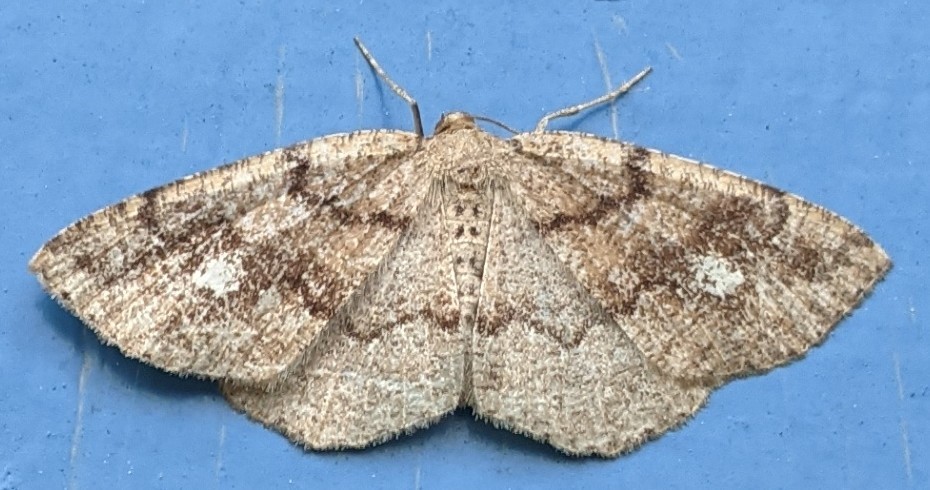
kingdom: Animalia
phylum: Arthropoda
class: Insecta
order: Lepidoptera
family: Geometridae
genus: Homochlodes
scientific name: Homochlodes fritillaria
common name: Pale homochlodes
